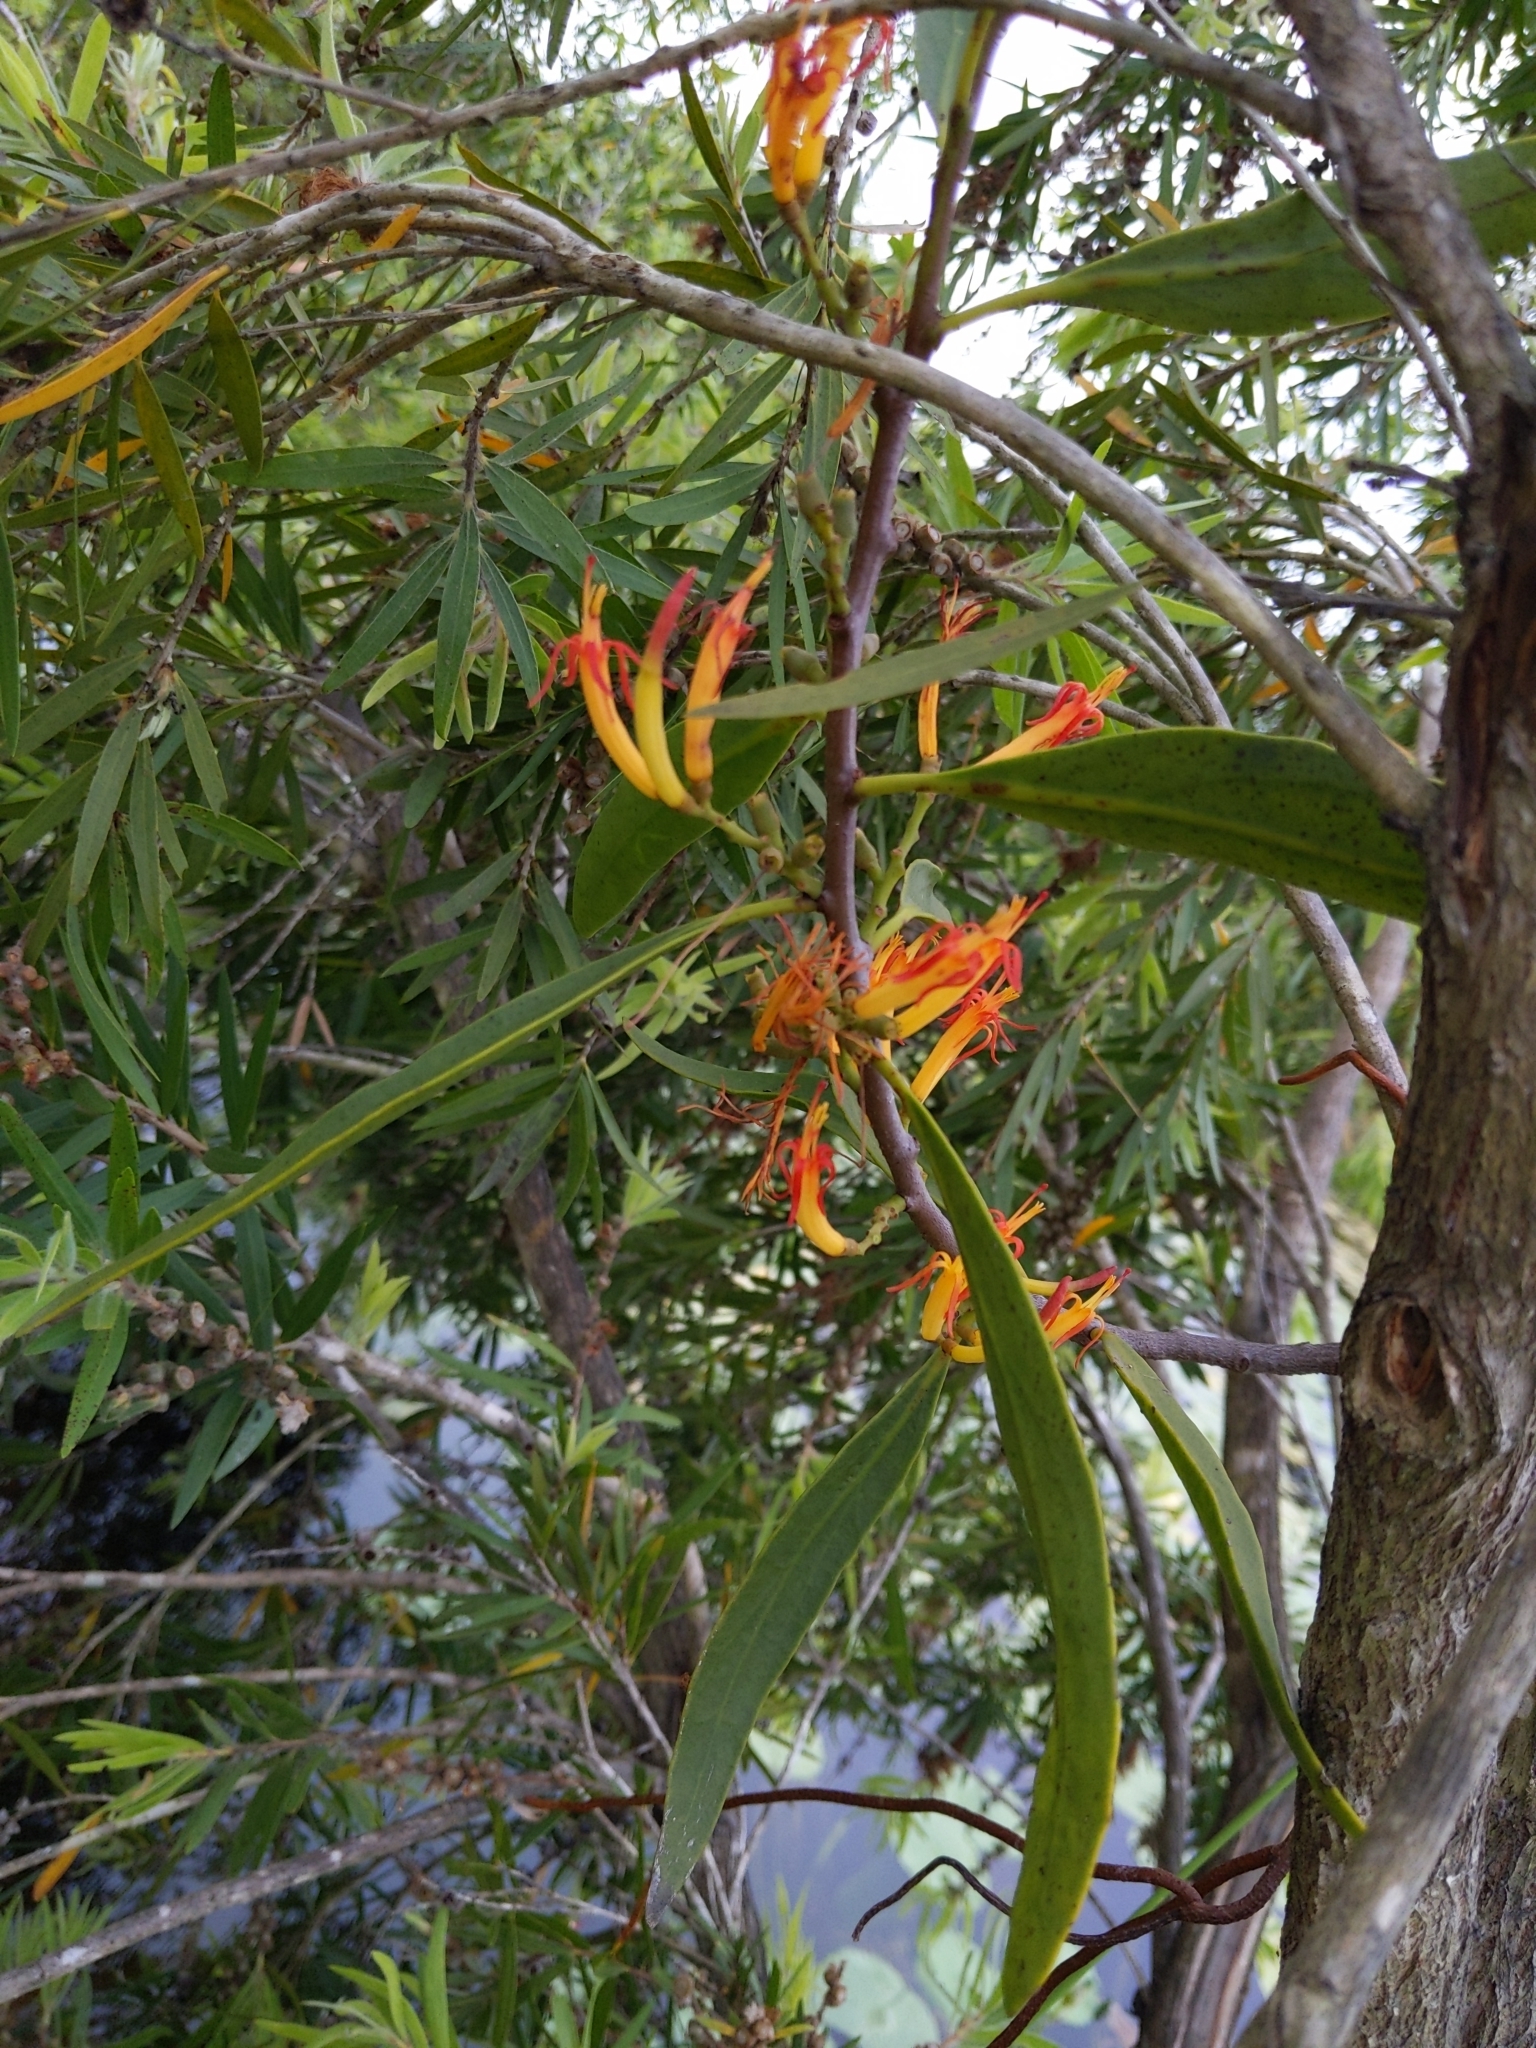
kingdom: Plantae
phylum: Tracheophyta
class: Magnoliopsida
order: Santalales
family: Loranthaceae
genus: Dendrophthoe
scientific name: Dendrophthoe vitellina
